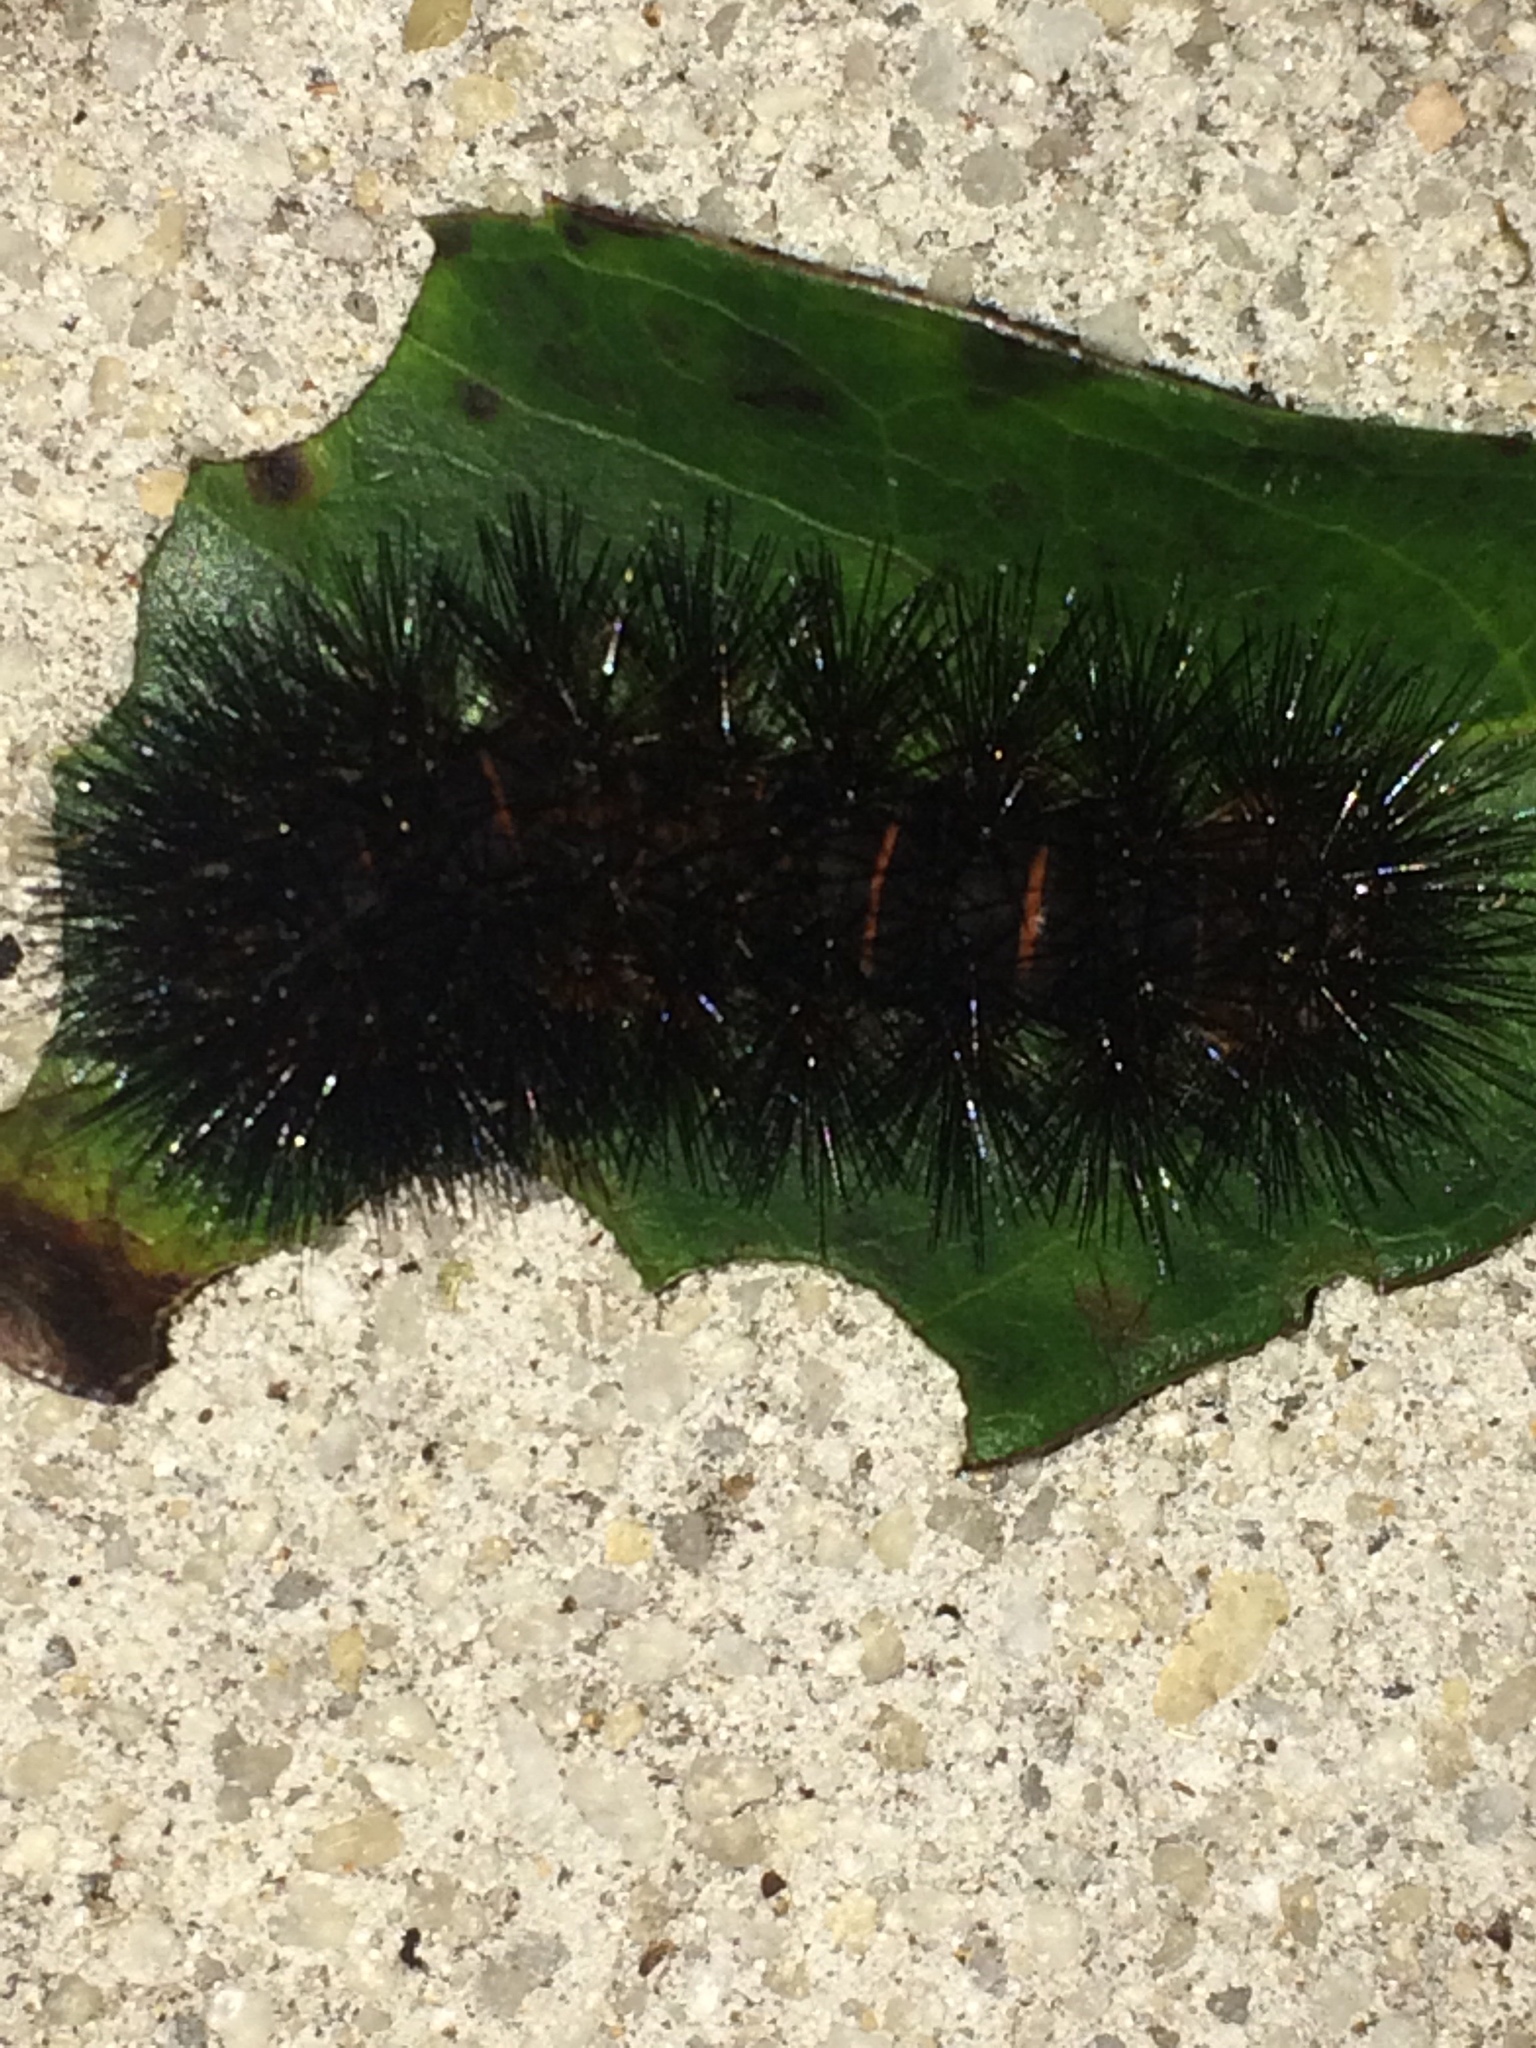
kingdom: Animalia
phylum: Arthropoda
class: Insecta
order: Lepidoptera
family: Erebidae
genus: Hypercompe
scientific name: Hypercompe scribonia
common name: Giant leopard moth
